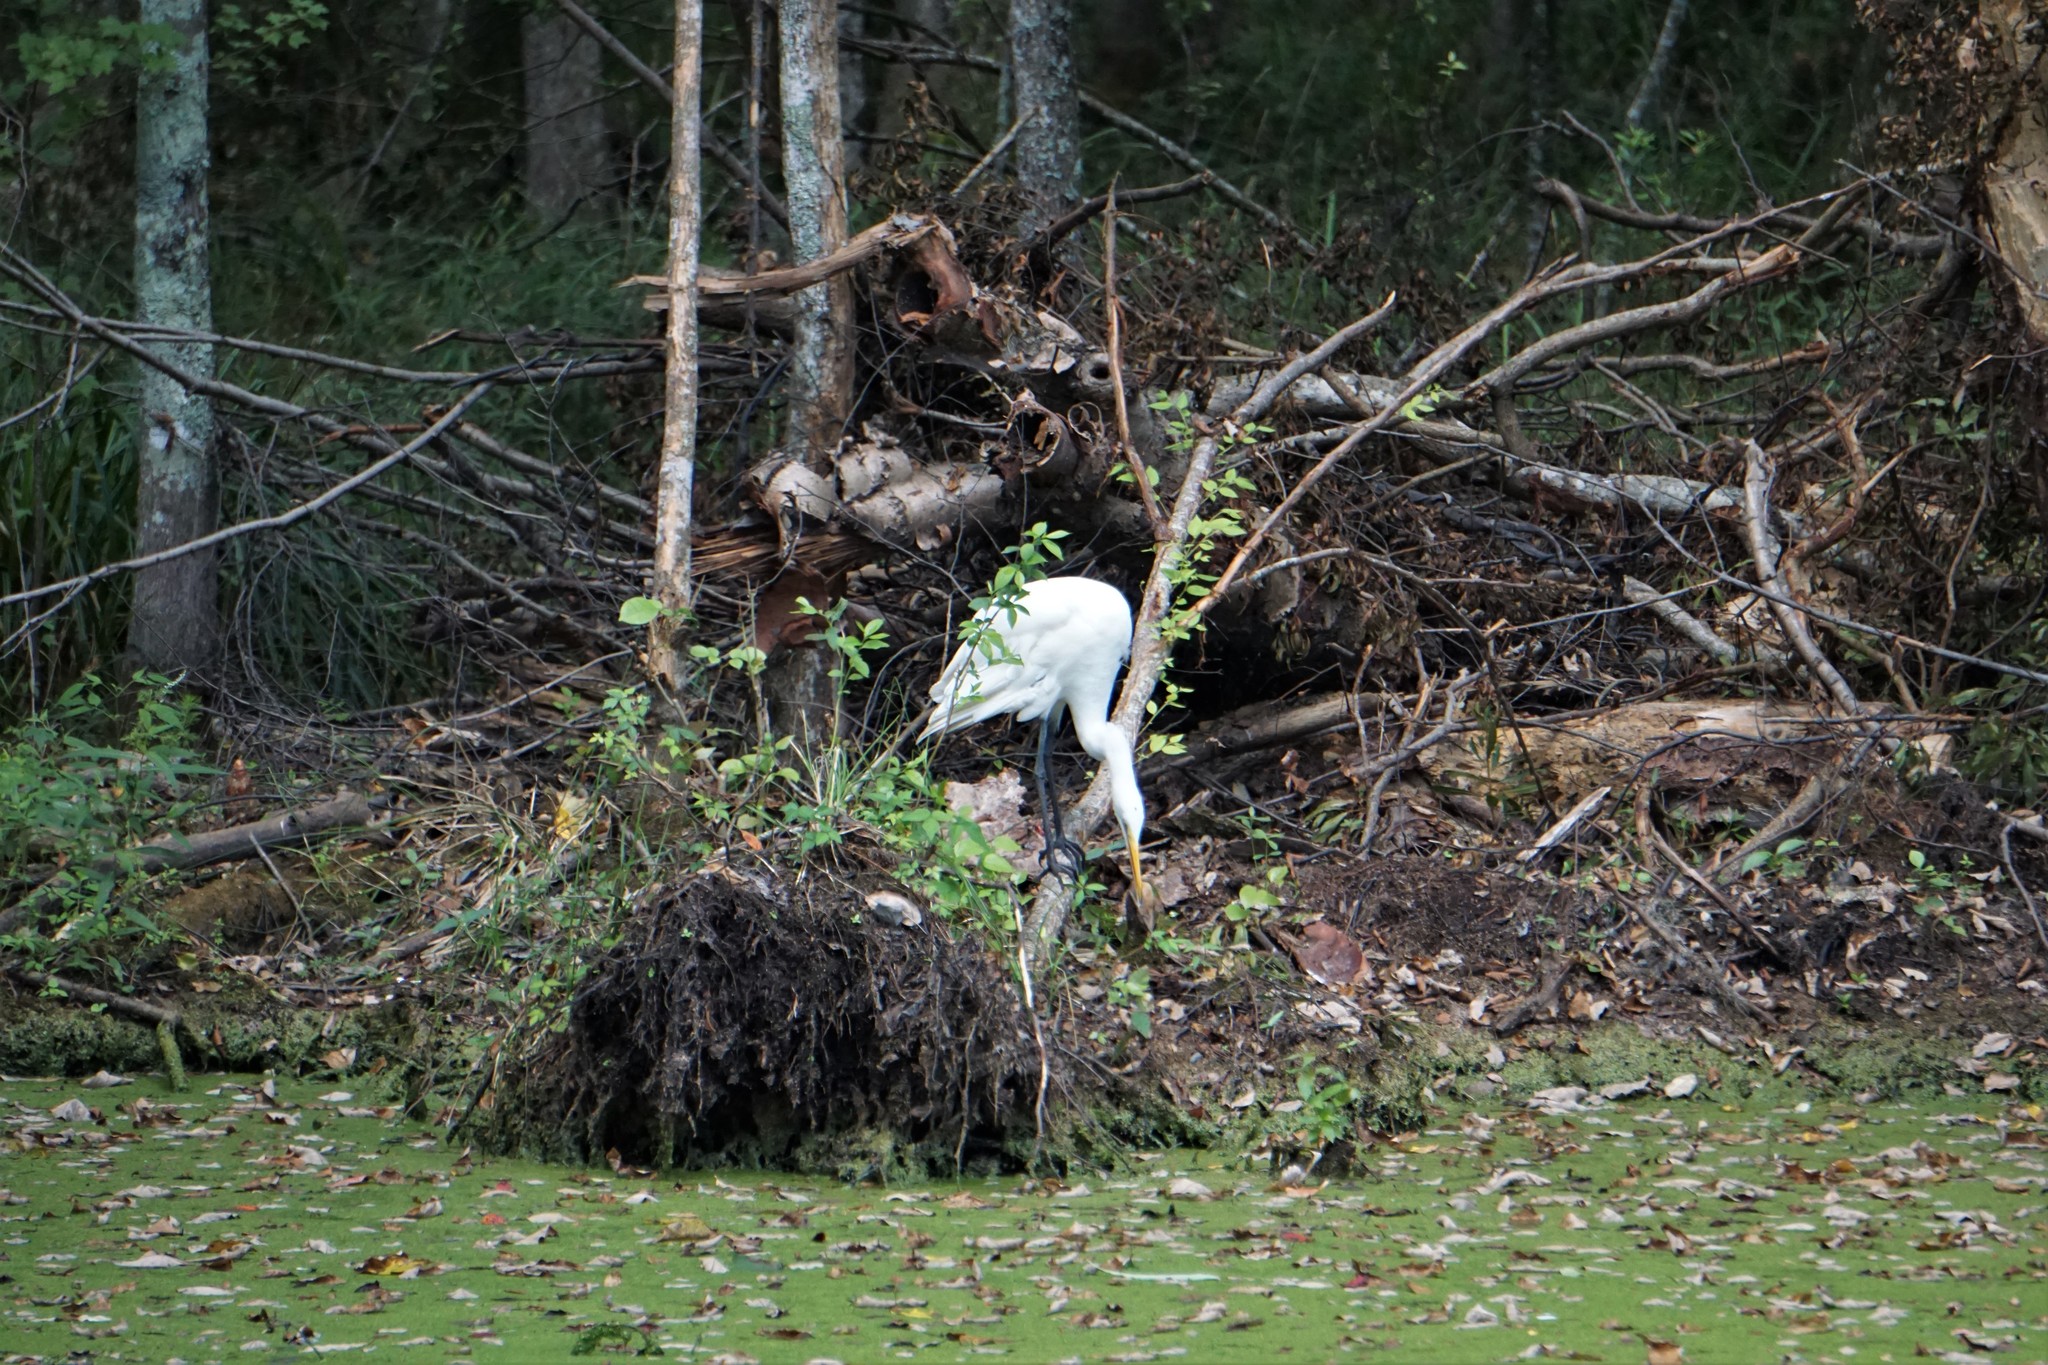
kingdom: Animalia
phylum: Chordata
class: Aves
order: Pelecaniformes
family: Ardeidae
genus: Ardea
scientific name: Ardea alba
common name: Great egret
